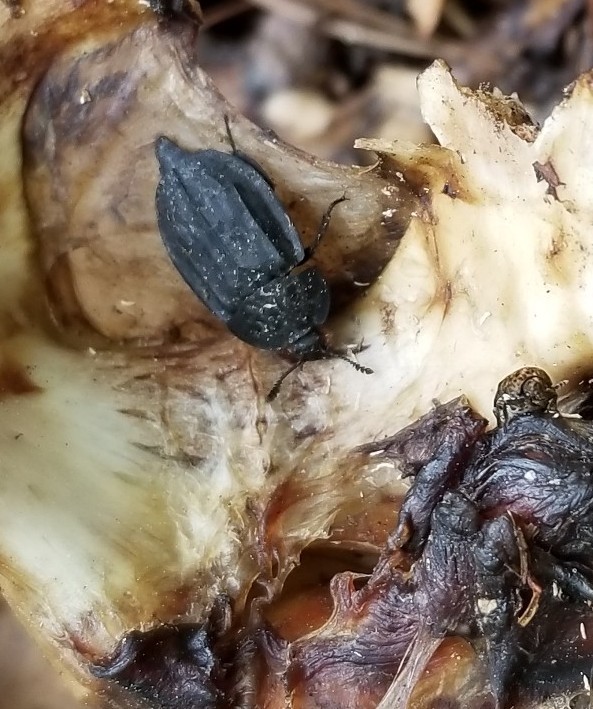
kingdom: Animalia
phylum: Arthropoda
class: Insecta
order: Coleoptera
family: Staphylinidae
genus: Oiceoptoma
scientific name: Oiceoptoma inaequale
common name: Ridged carrion beetle
